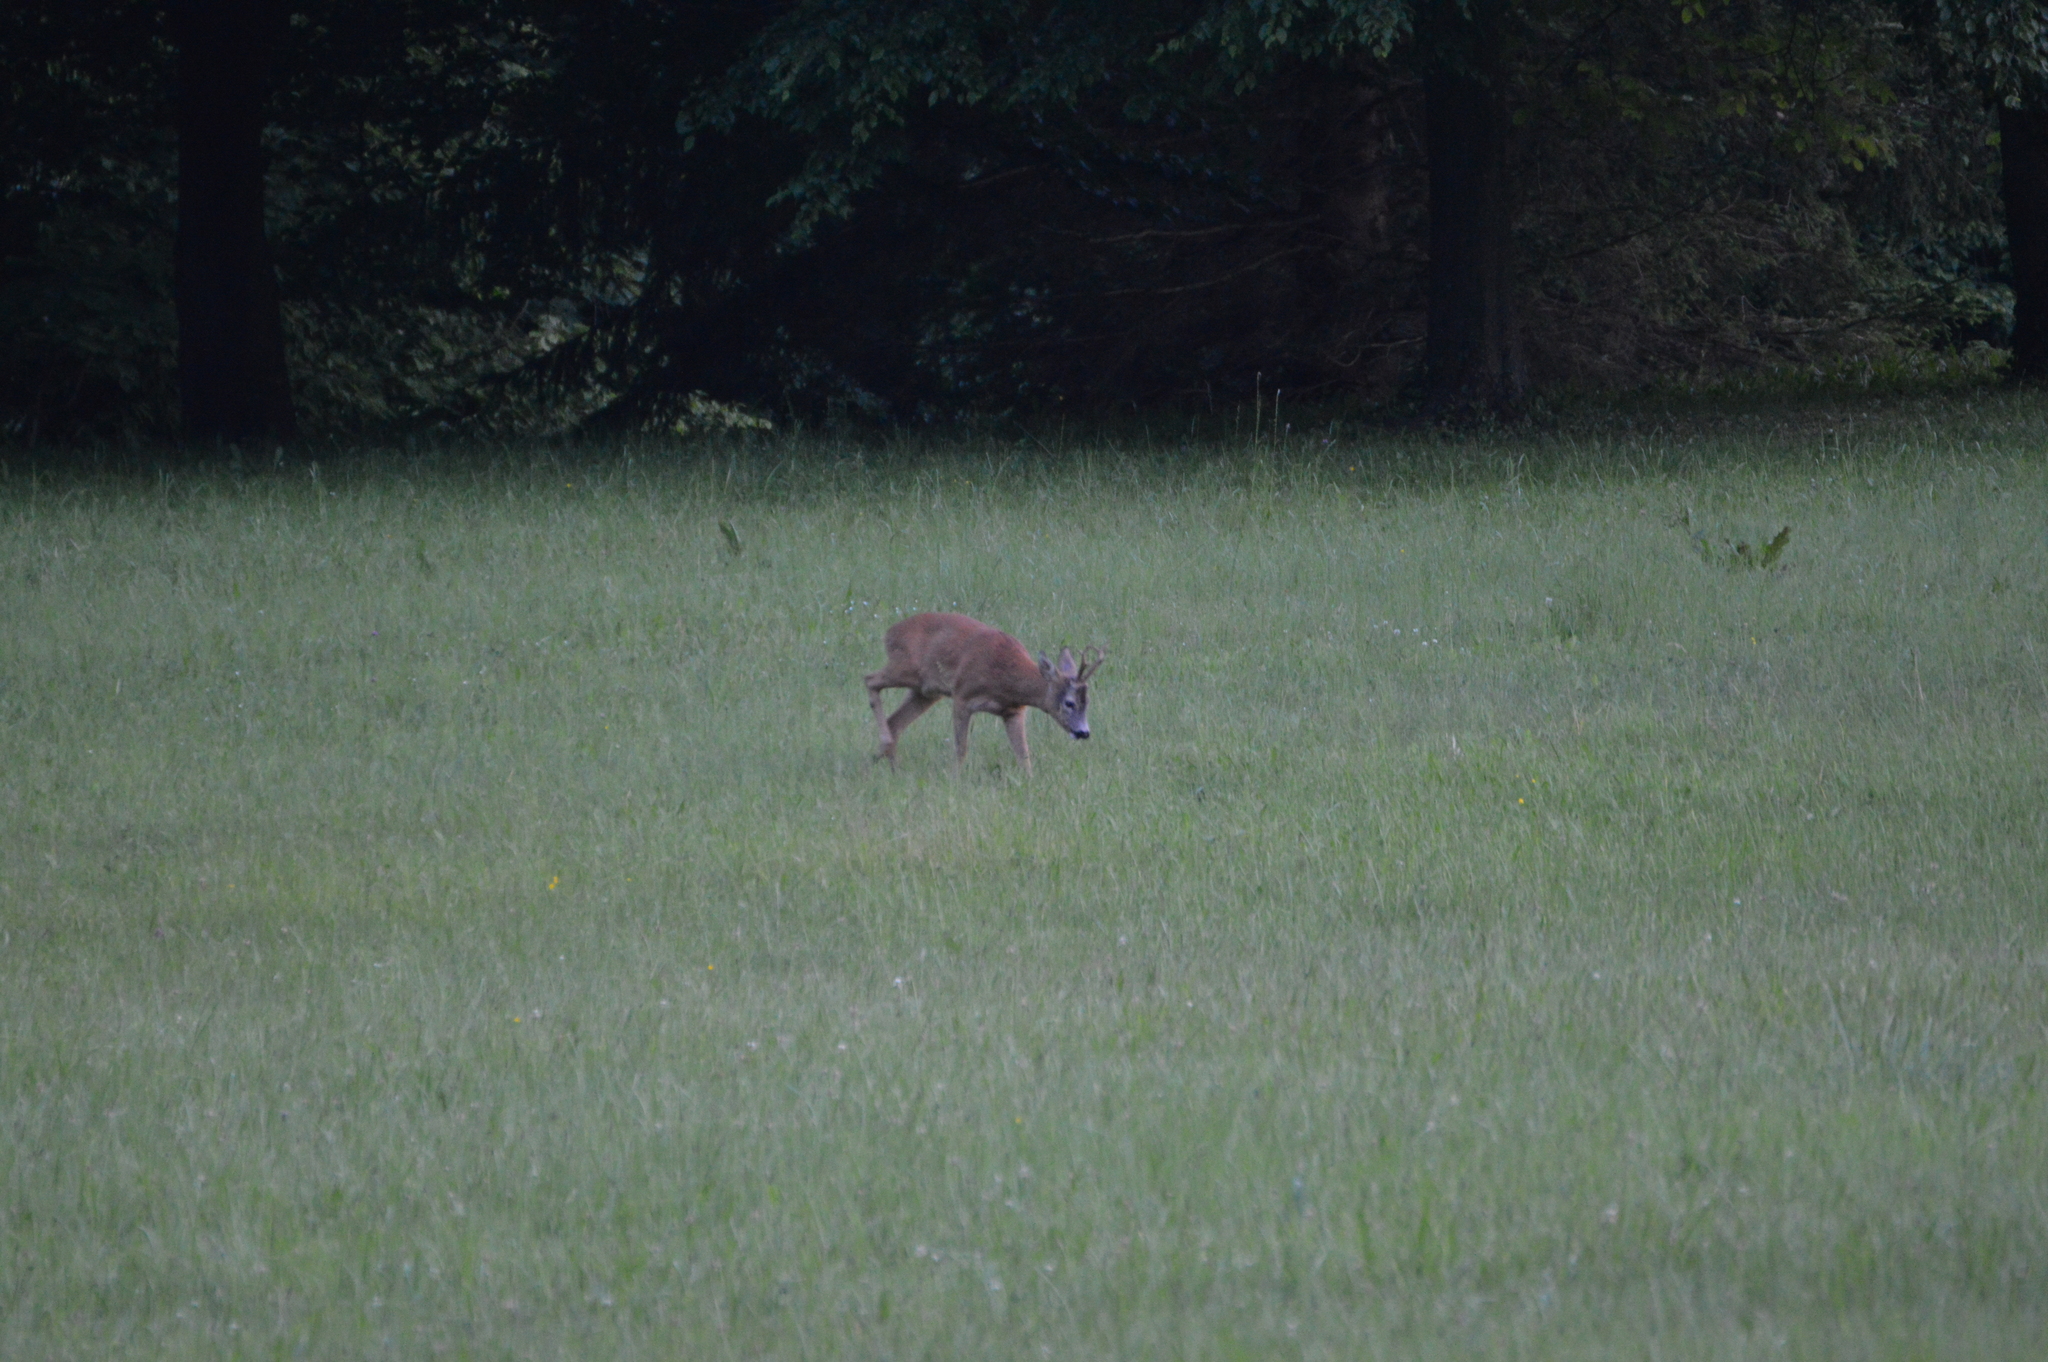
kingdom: Animalia
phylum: Chordata
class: Mammalia
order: Artiodactyla
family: Cervidae
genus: Capreolus
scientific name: Capreolus capreolus
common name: Western roe deer
